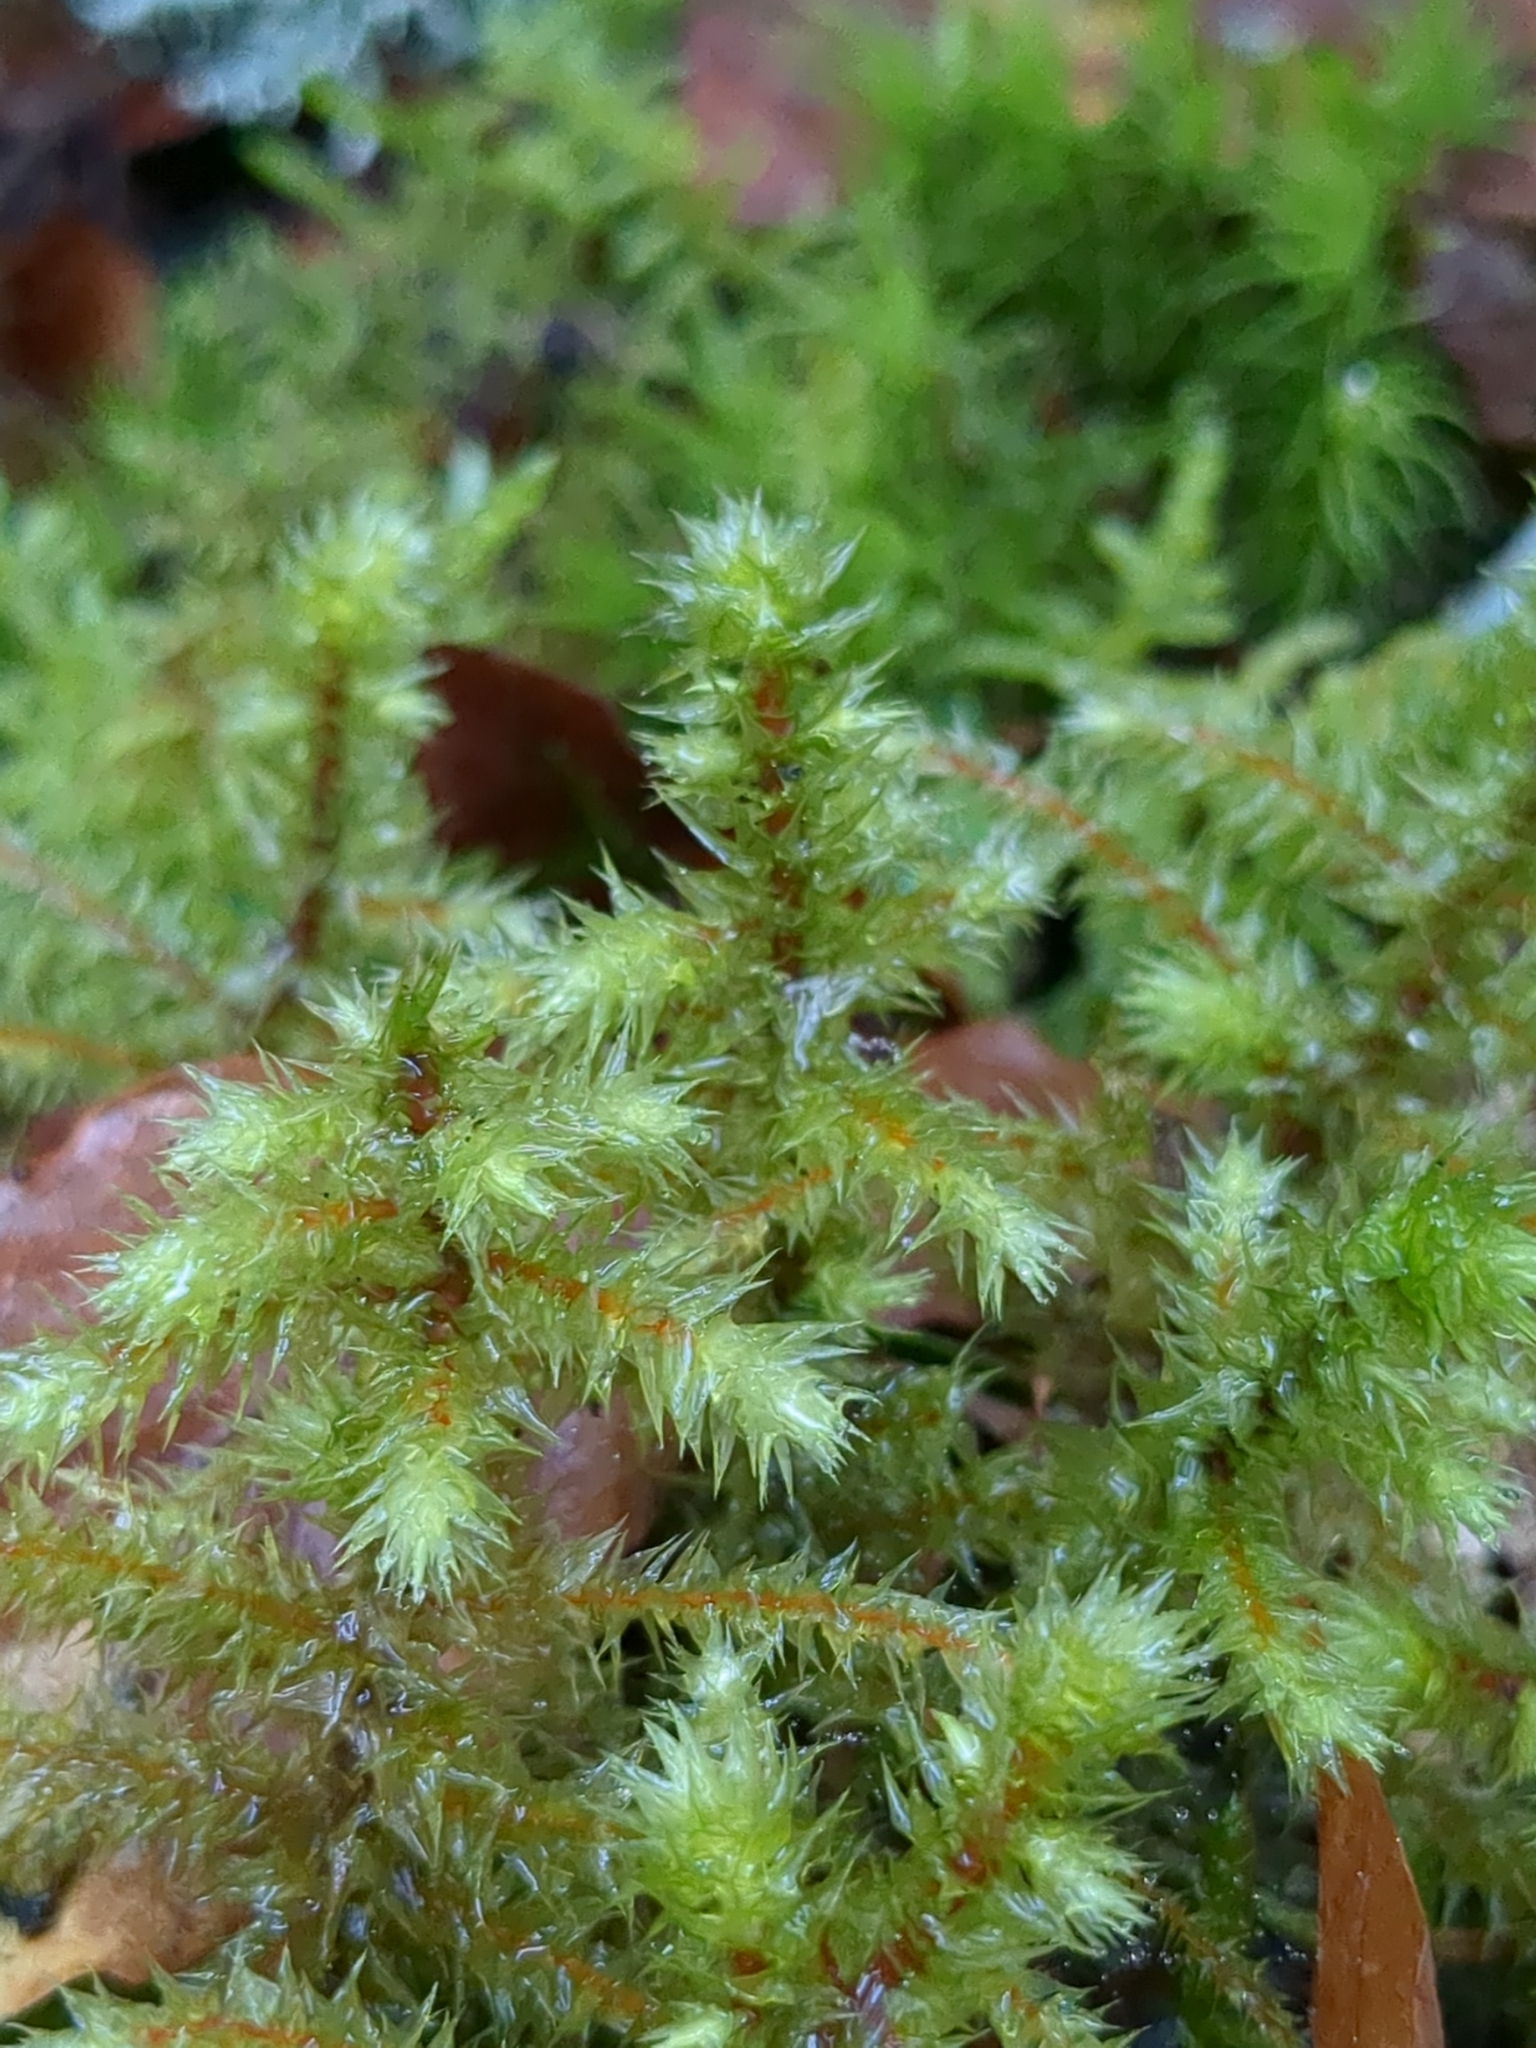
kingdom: Plantae
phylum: Bryophyta
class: Bryopsida
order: Hypnales
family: Hylocomiaceae
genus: Hylocomiadelphus
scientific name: Hylocomiadelphus triquetrus
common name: Rough goose neck moss
